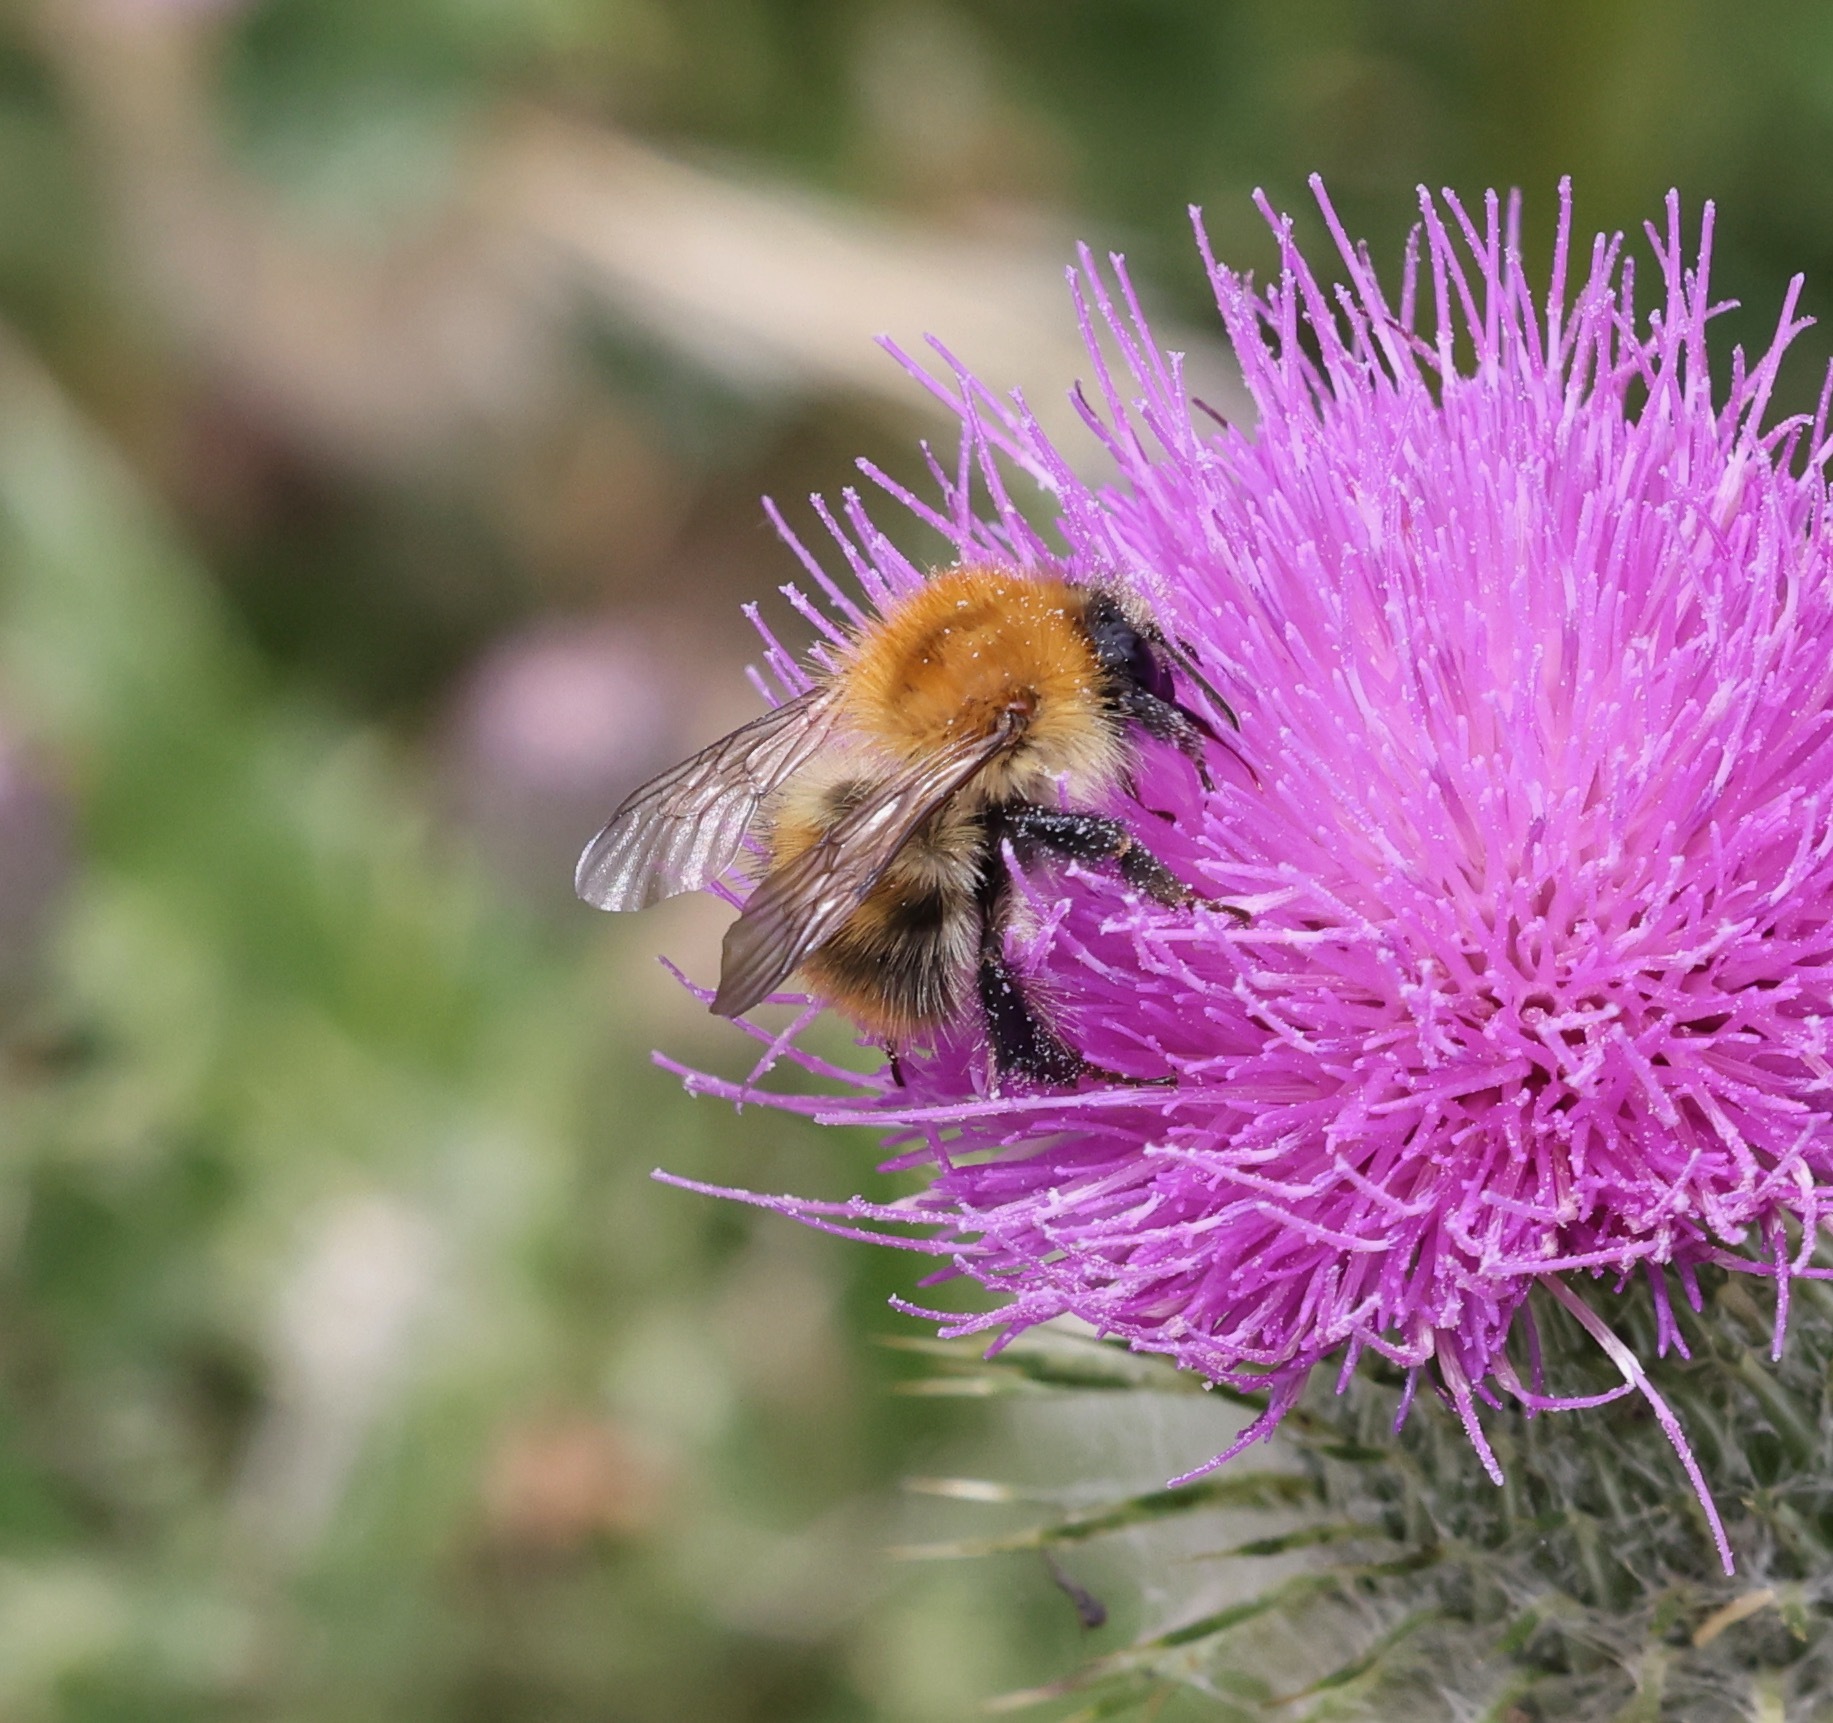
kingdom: Animalia
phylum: Arthropoda
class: Insecta
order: Hymenoptera
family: Apidae
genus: Bombus
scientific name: Bombus pascuorum
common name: Common carder bee
